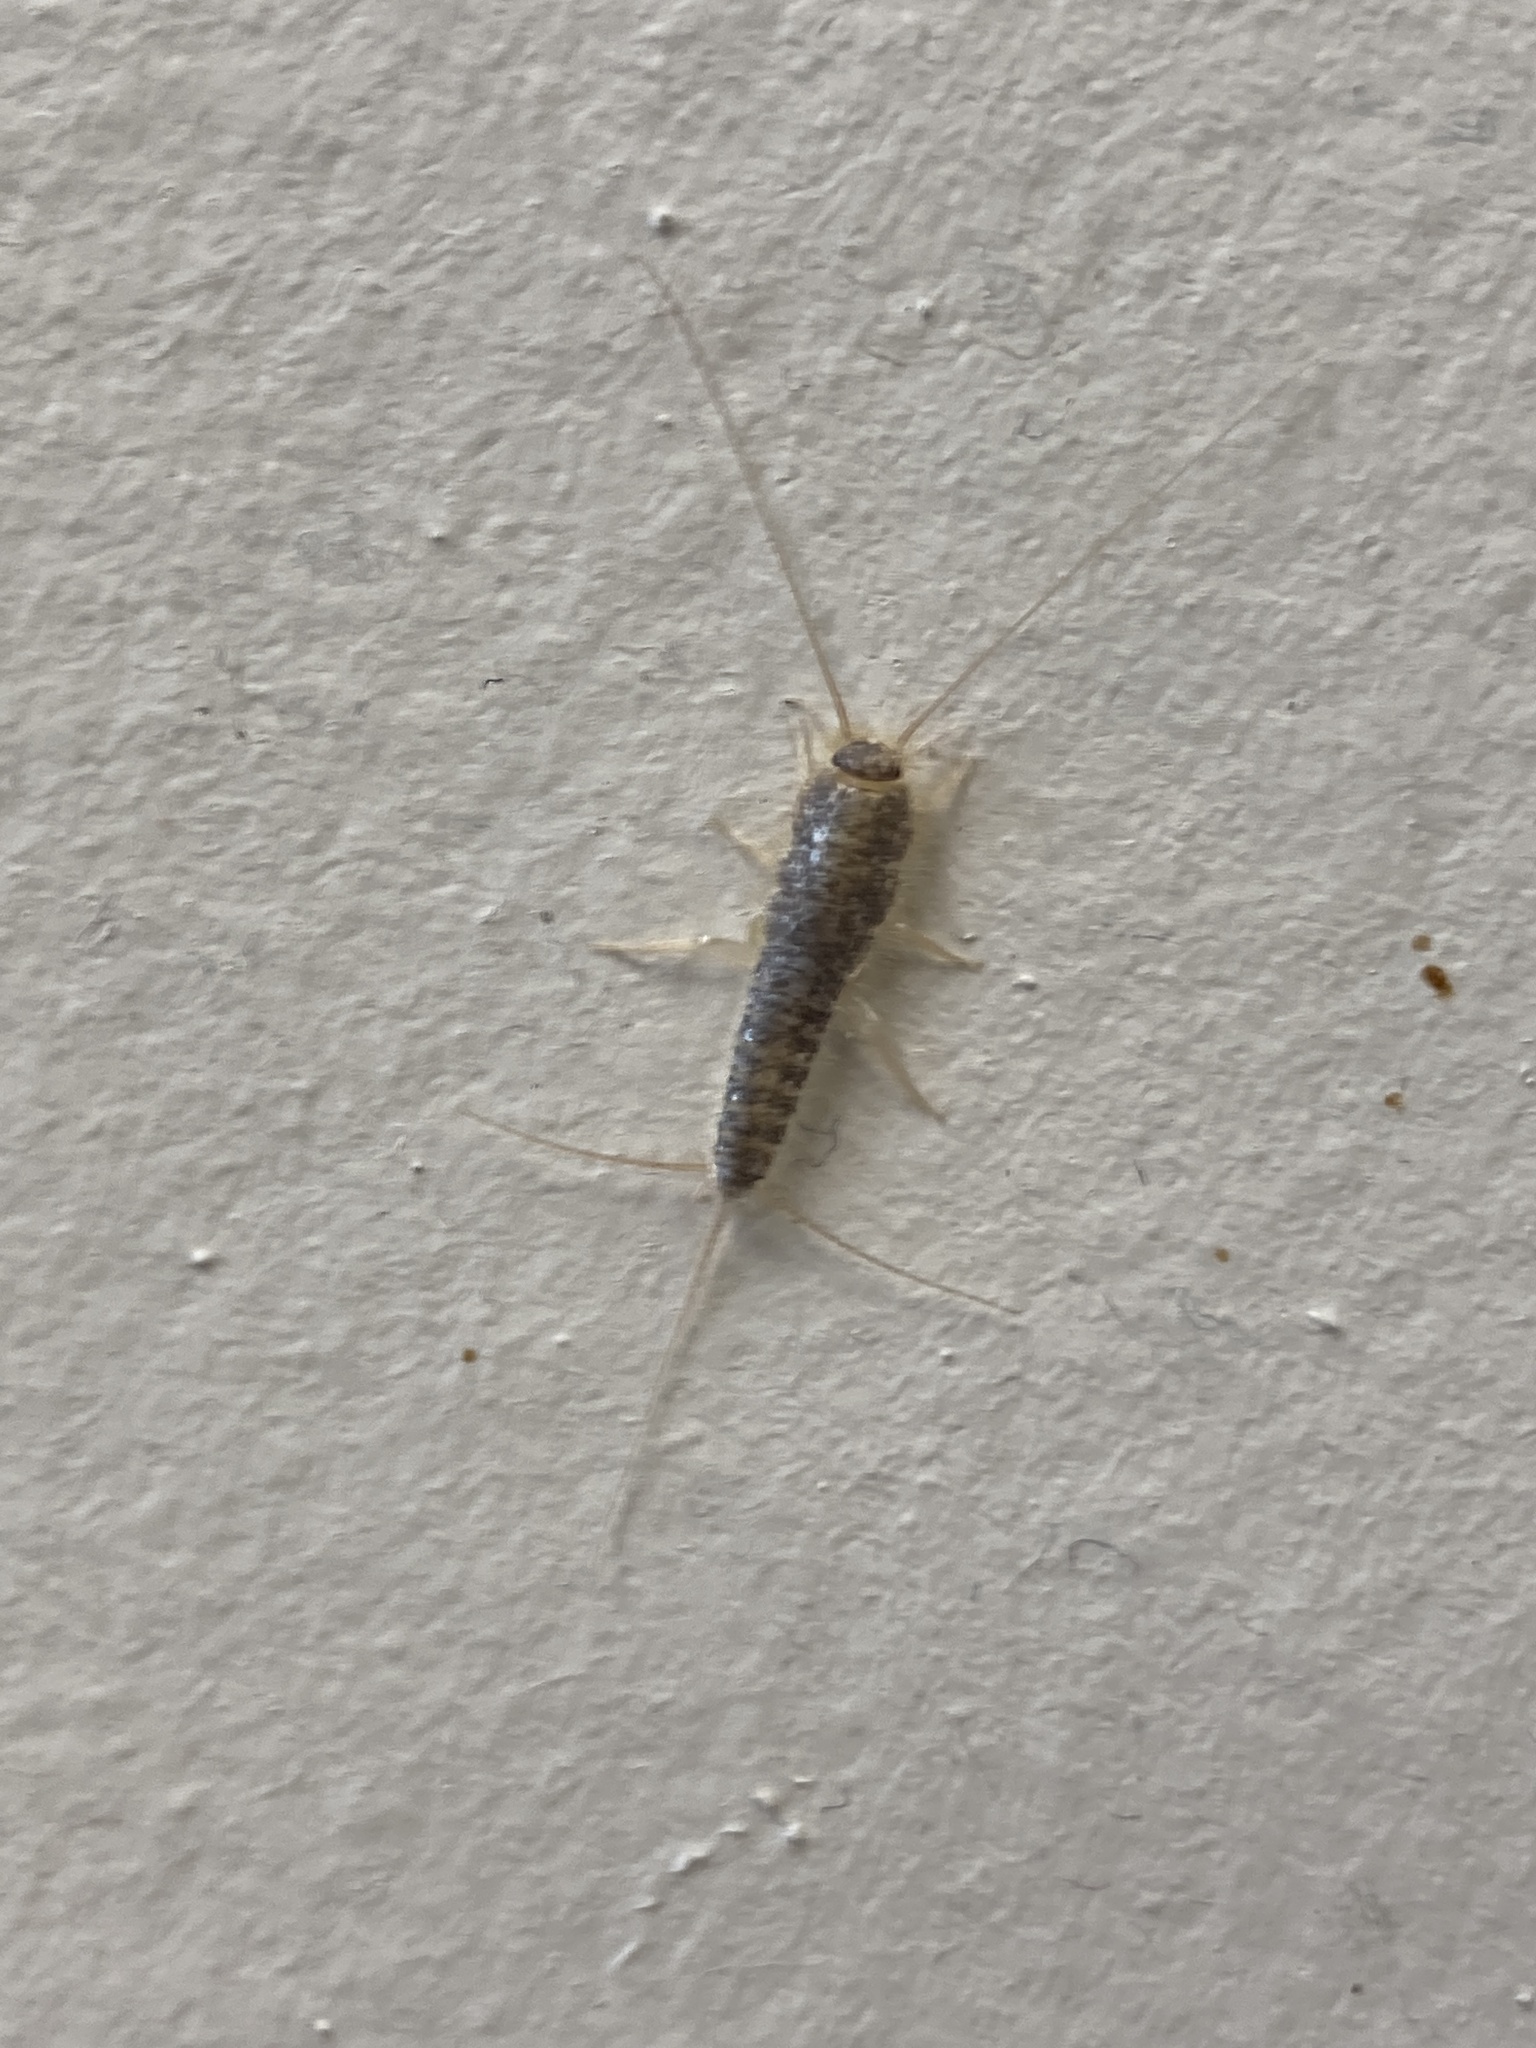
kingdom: Animalia
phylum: Arthropoda
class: Insecta
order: Zygentoma
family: Lepismatidae
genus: Ctenolepisma
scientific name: Ctenolepisma longicaudatum
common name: Silverfish
